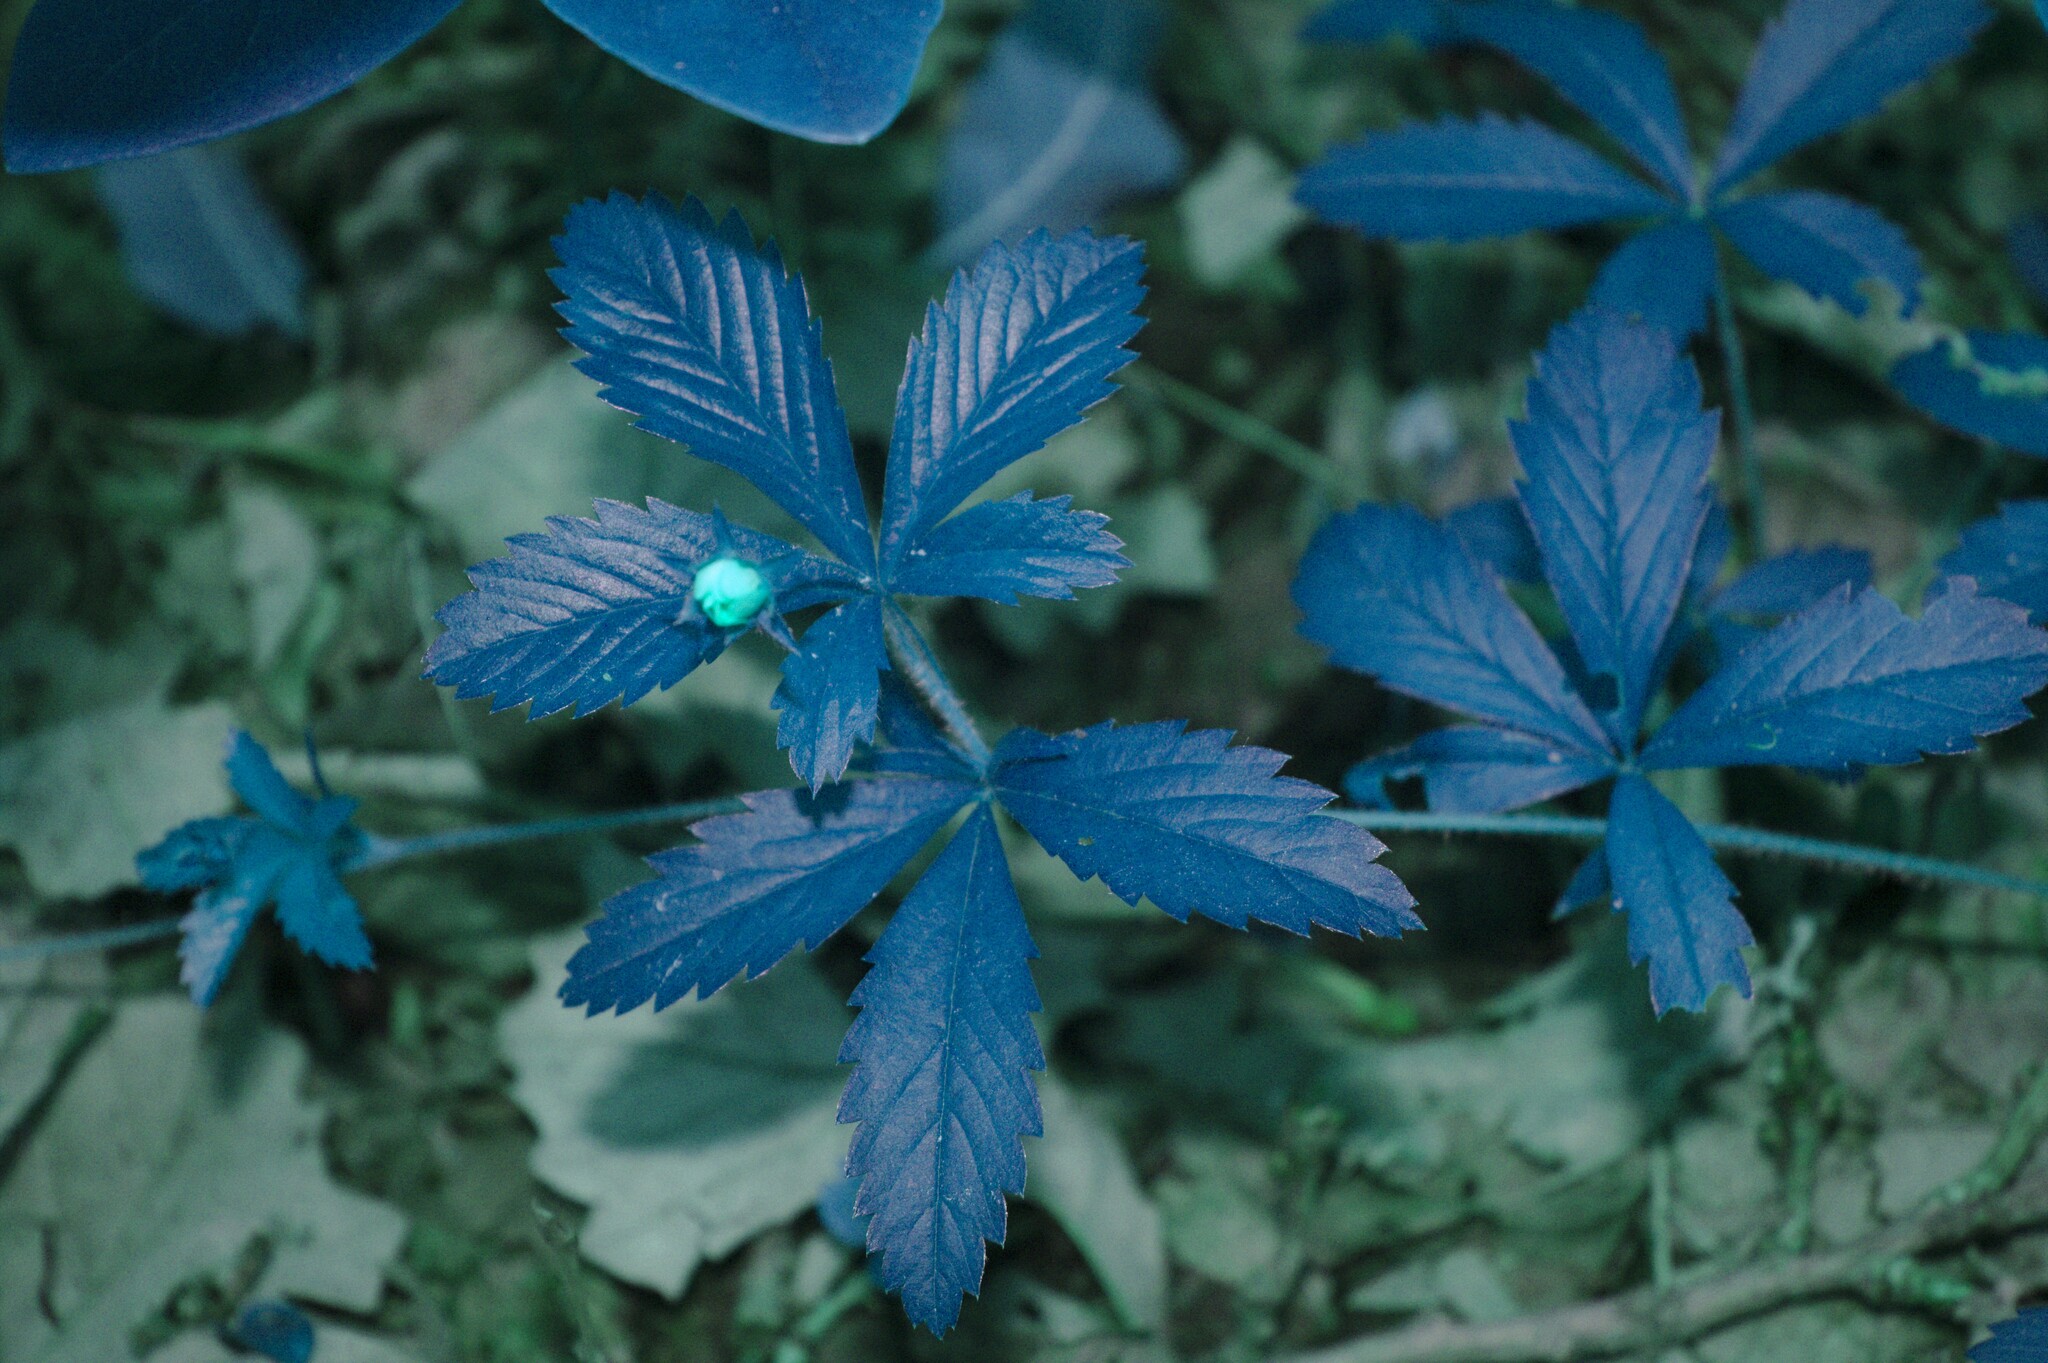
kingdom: Plantae
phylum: Tracheophyta
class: Magnoliopsida
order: Rosales
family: Rosaceae
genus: Potentilla
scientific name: Potentilla simplex
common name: Old field cinquefoil
